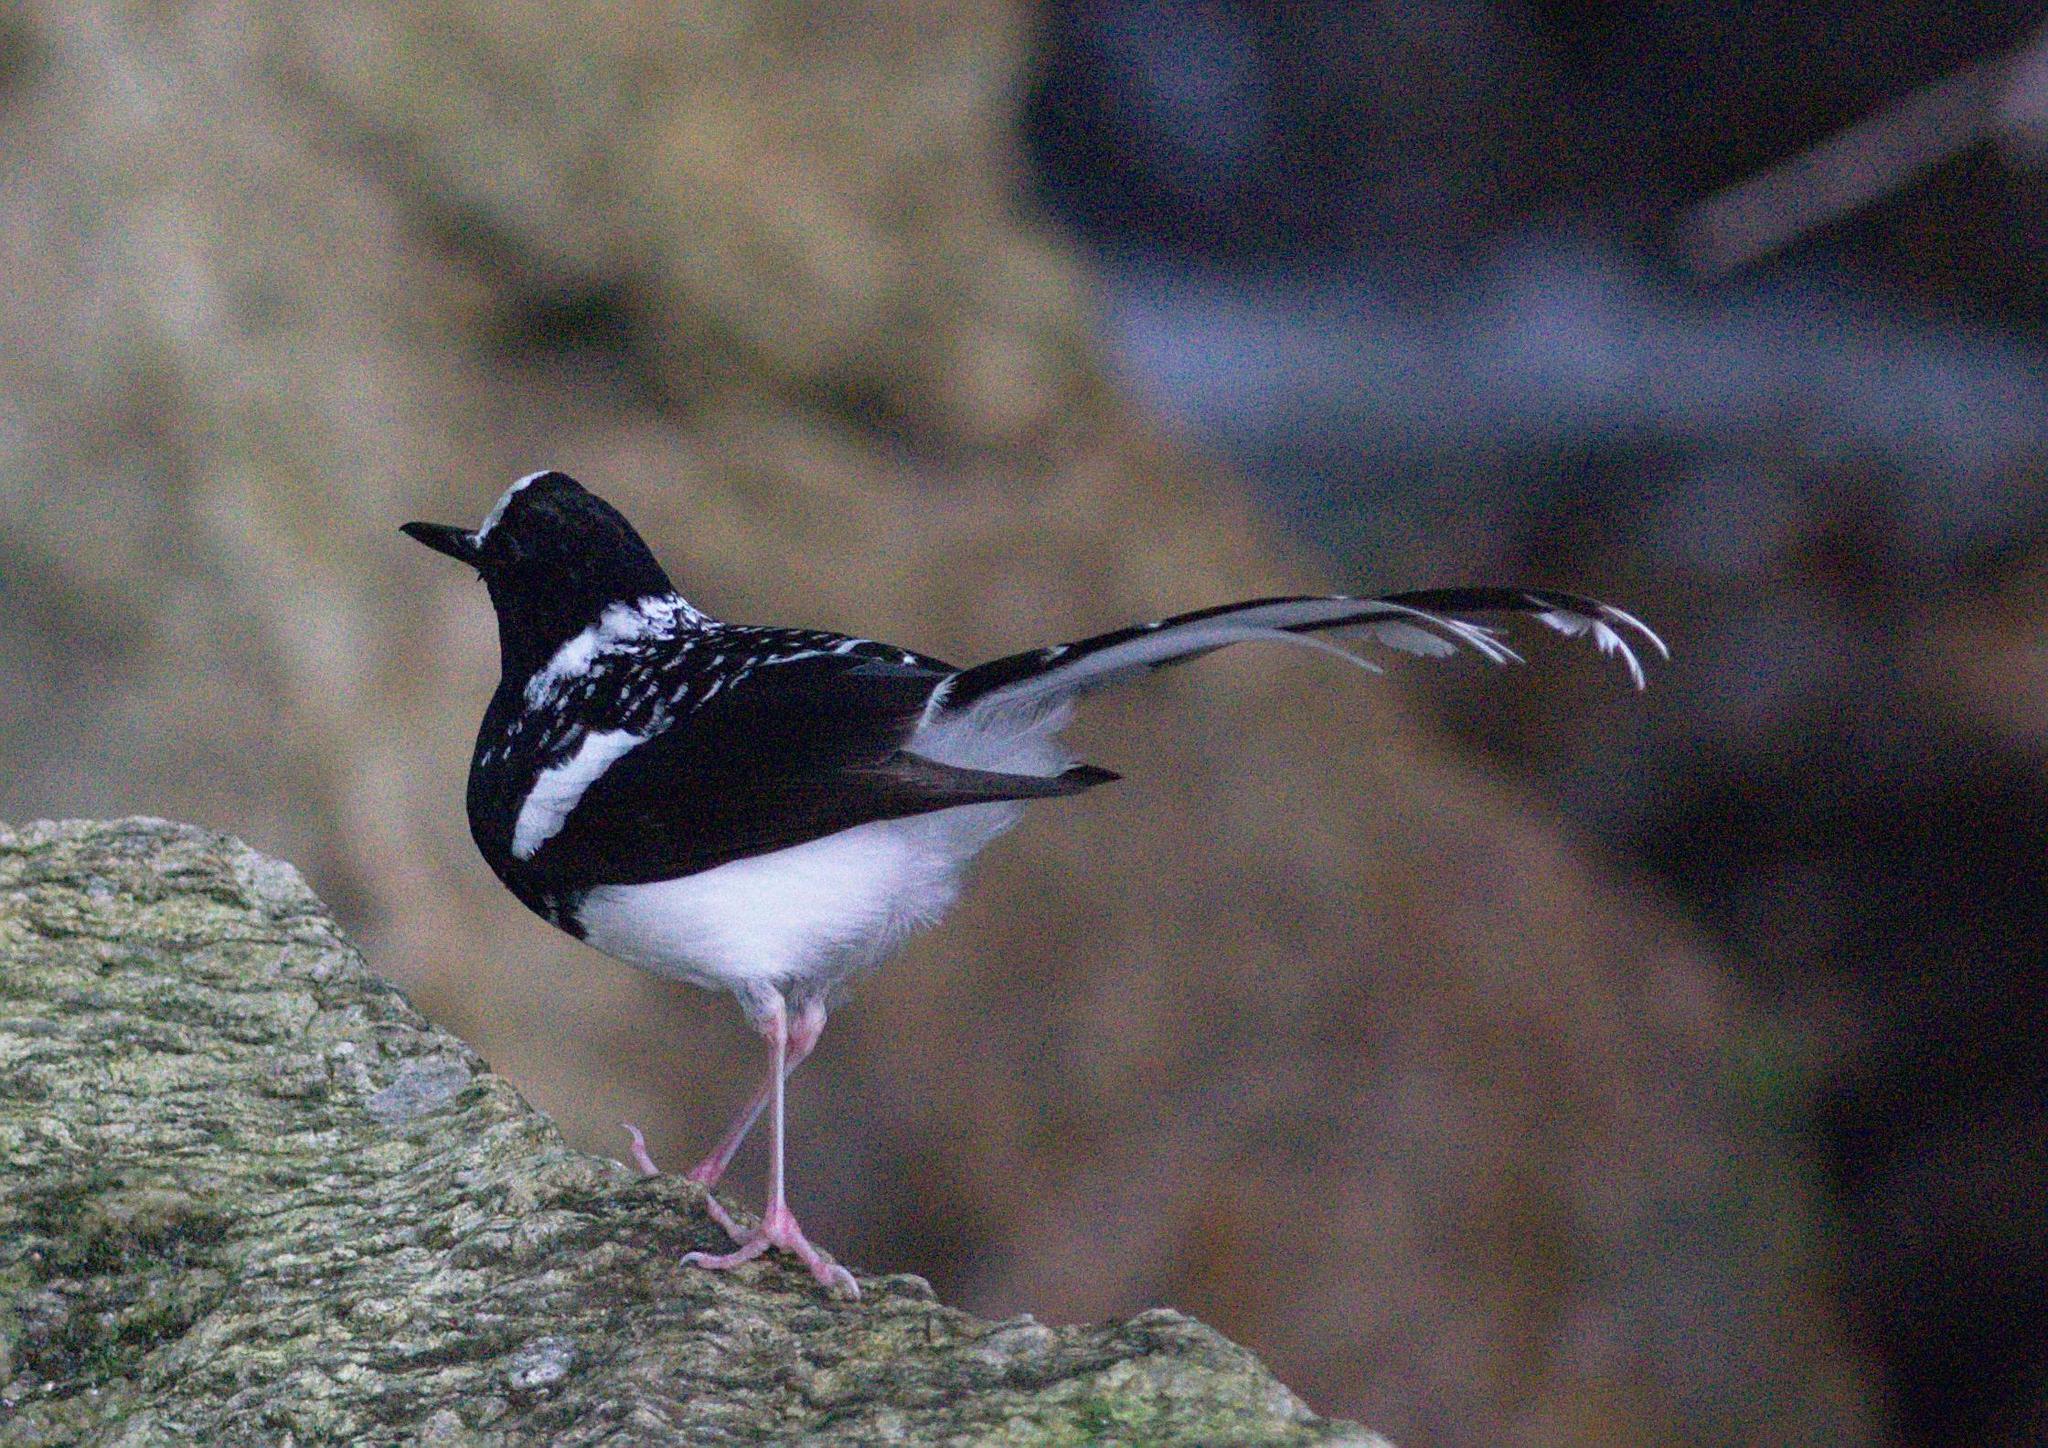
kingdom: Animalia
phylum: Chordata
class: Aves
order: Passeriformes
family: Muscicapidae
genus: Enicurus
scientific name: Enicurus maculatus
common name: Spotted forktail
